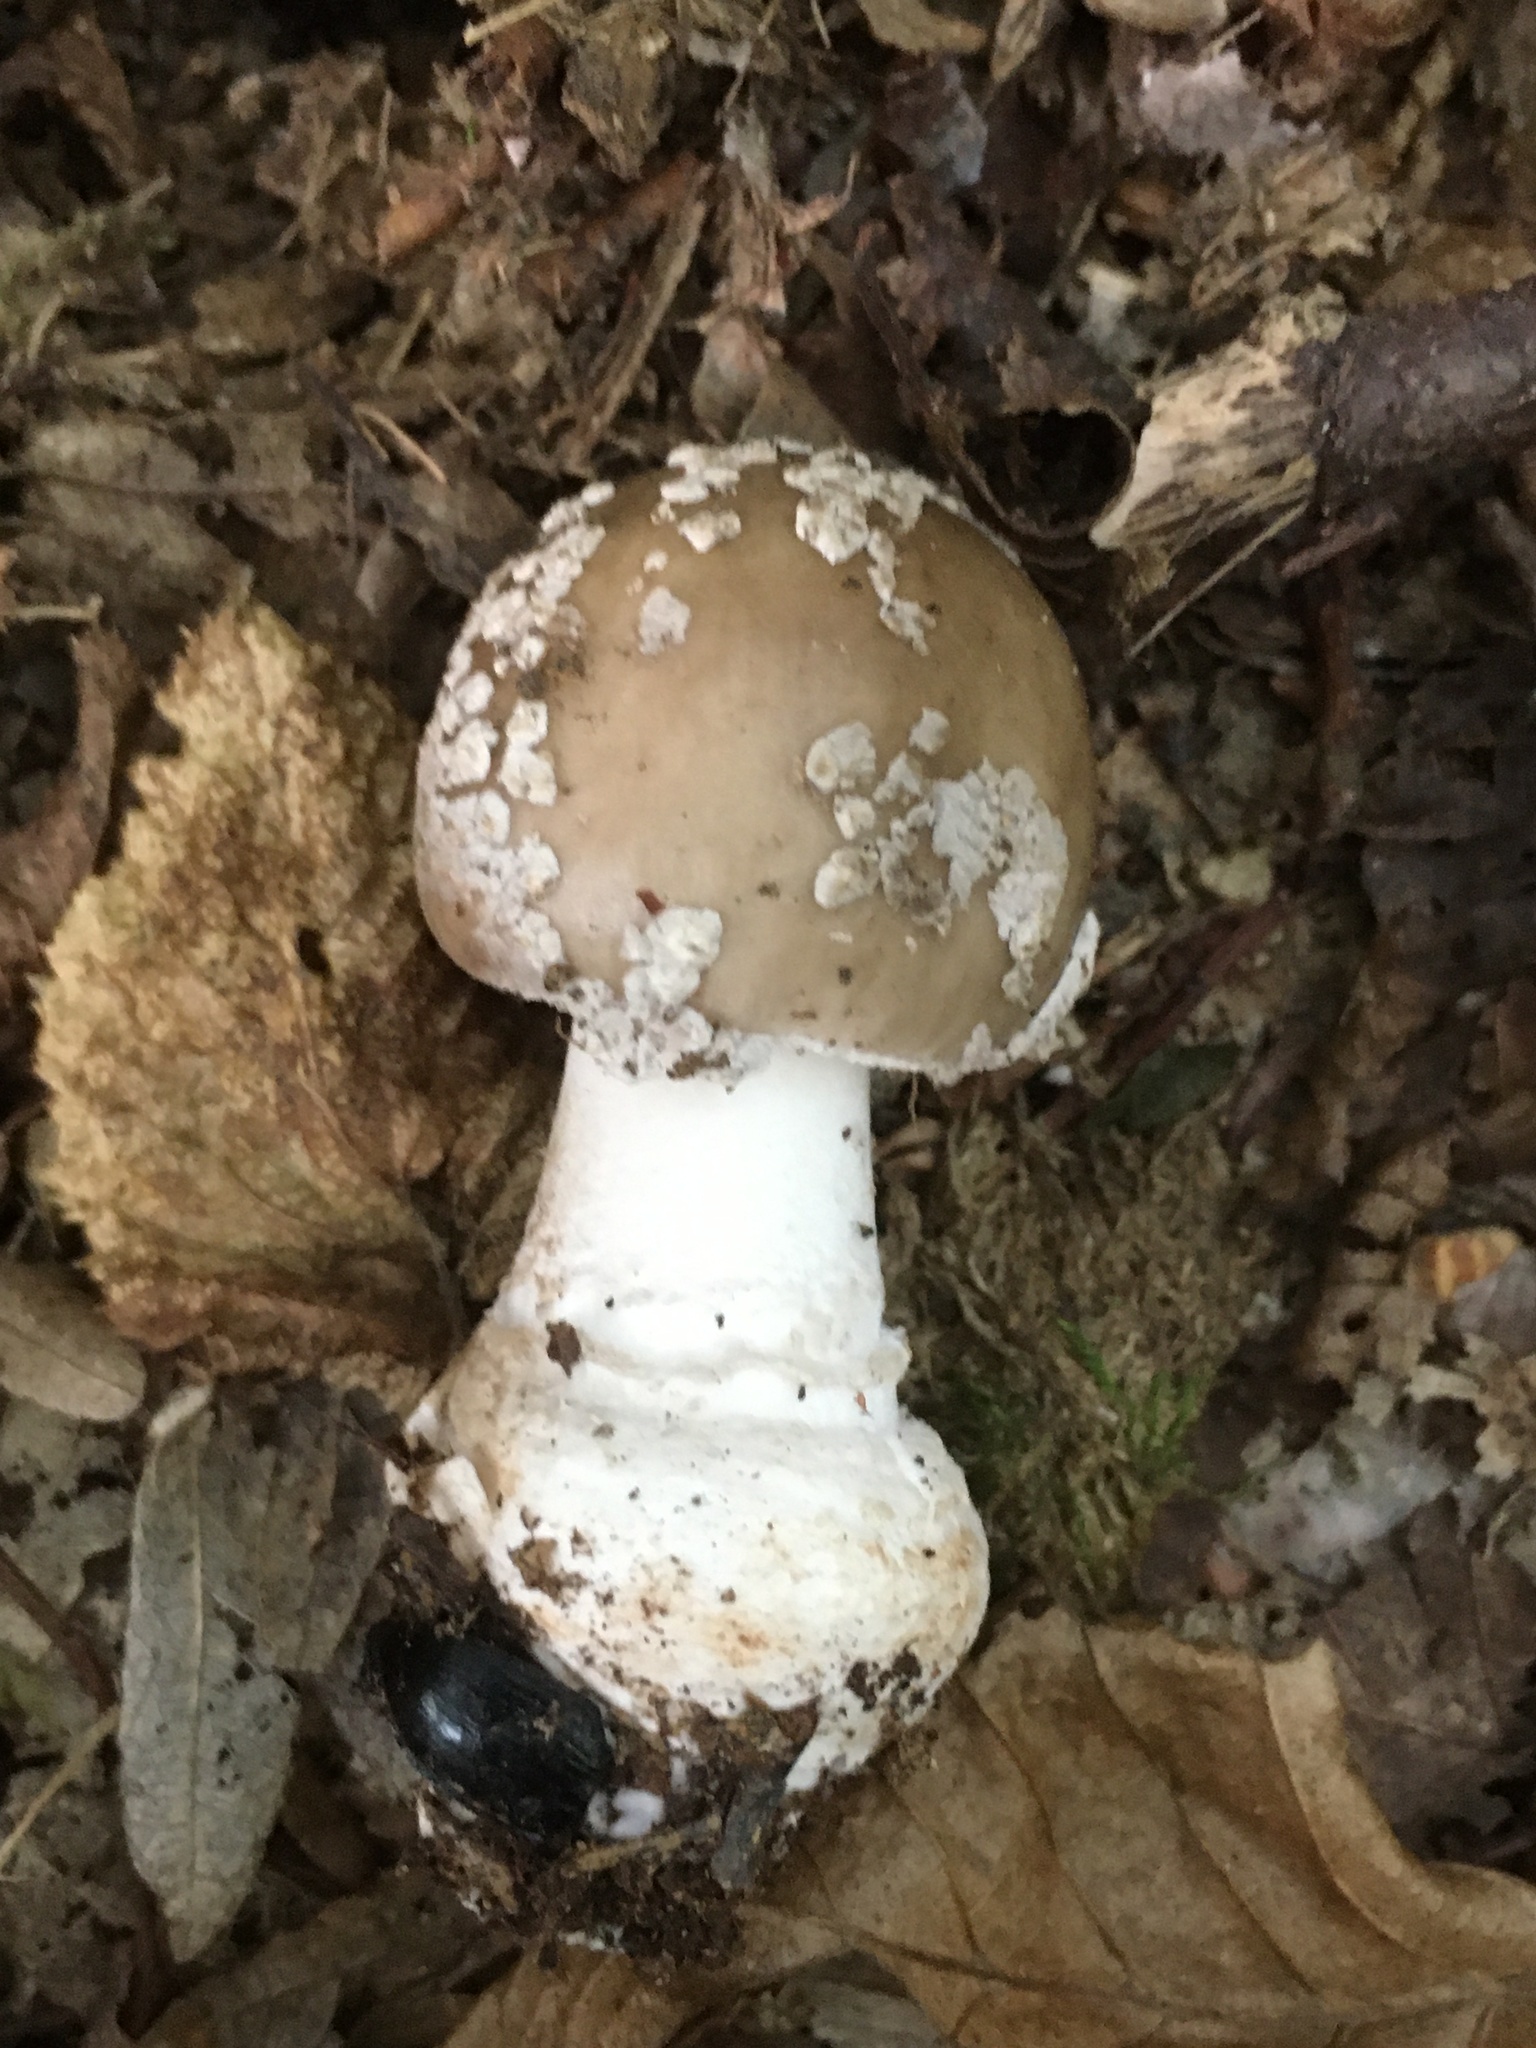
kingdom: Fungi
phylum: Basidiomycota
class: Agaricomycetes
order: Agaricales
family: Amanitaceae
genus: Amanita
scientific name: Amanita excelsa
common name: European false blusher
